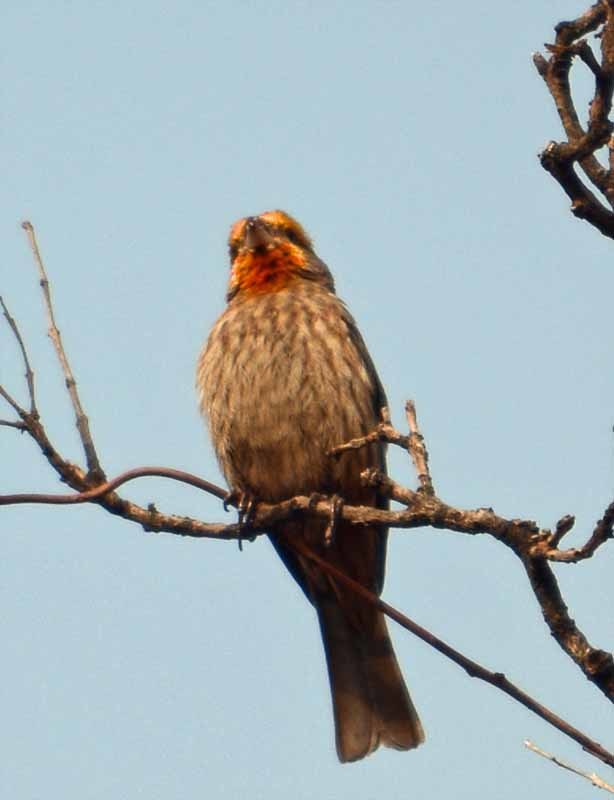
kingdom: Animalia
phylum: Chordata
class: Aves
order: Passeriformes
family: Fringillidae
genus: Haemorhous
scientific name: Haemorhous mexicanus
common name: House finch
